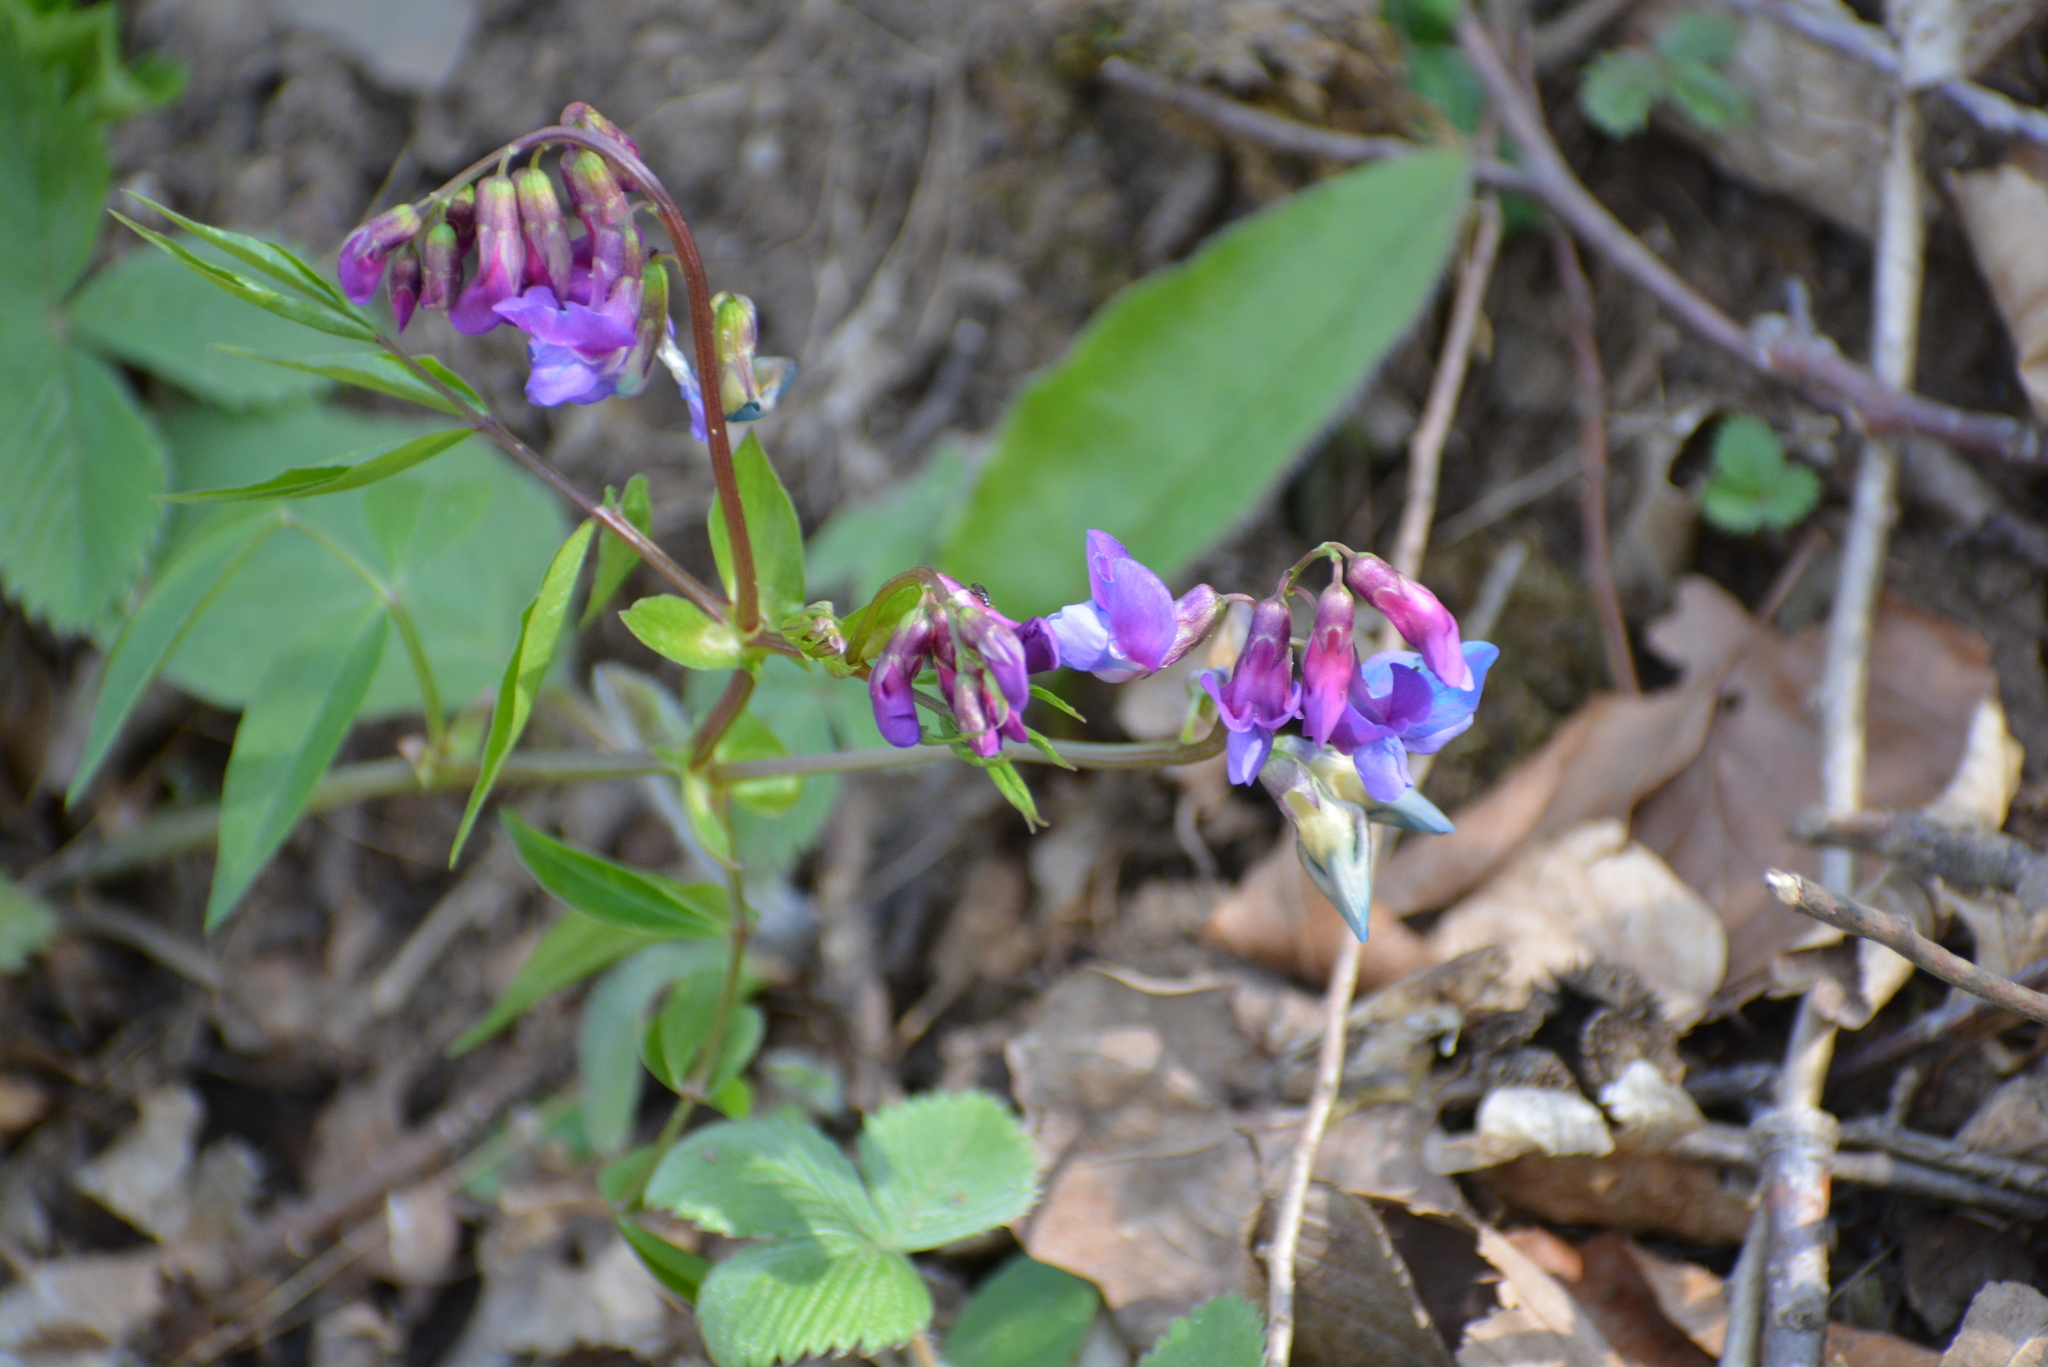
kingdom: Plantae
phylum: Tracheophyta
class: Magnoliopsida
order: Fabales
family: Fabaceae
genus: Lathyrus
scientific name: Lathyrus vernus
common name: Spring pea
